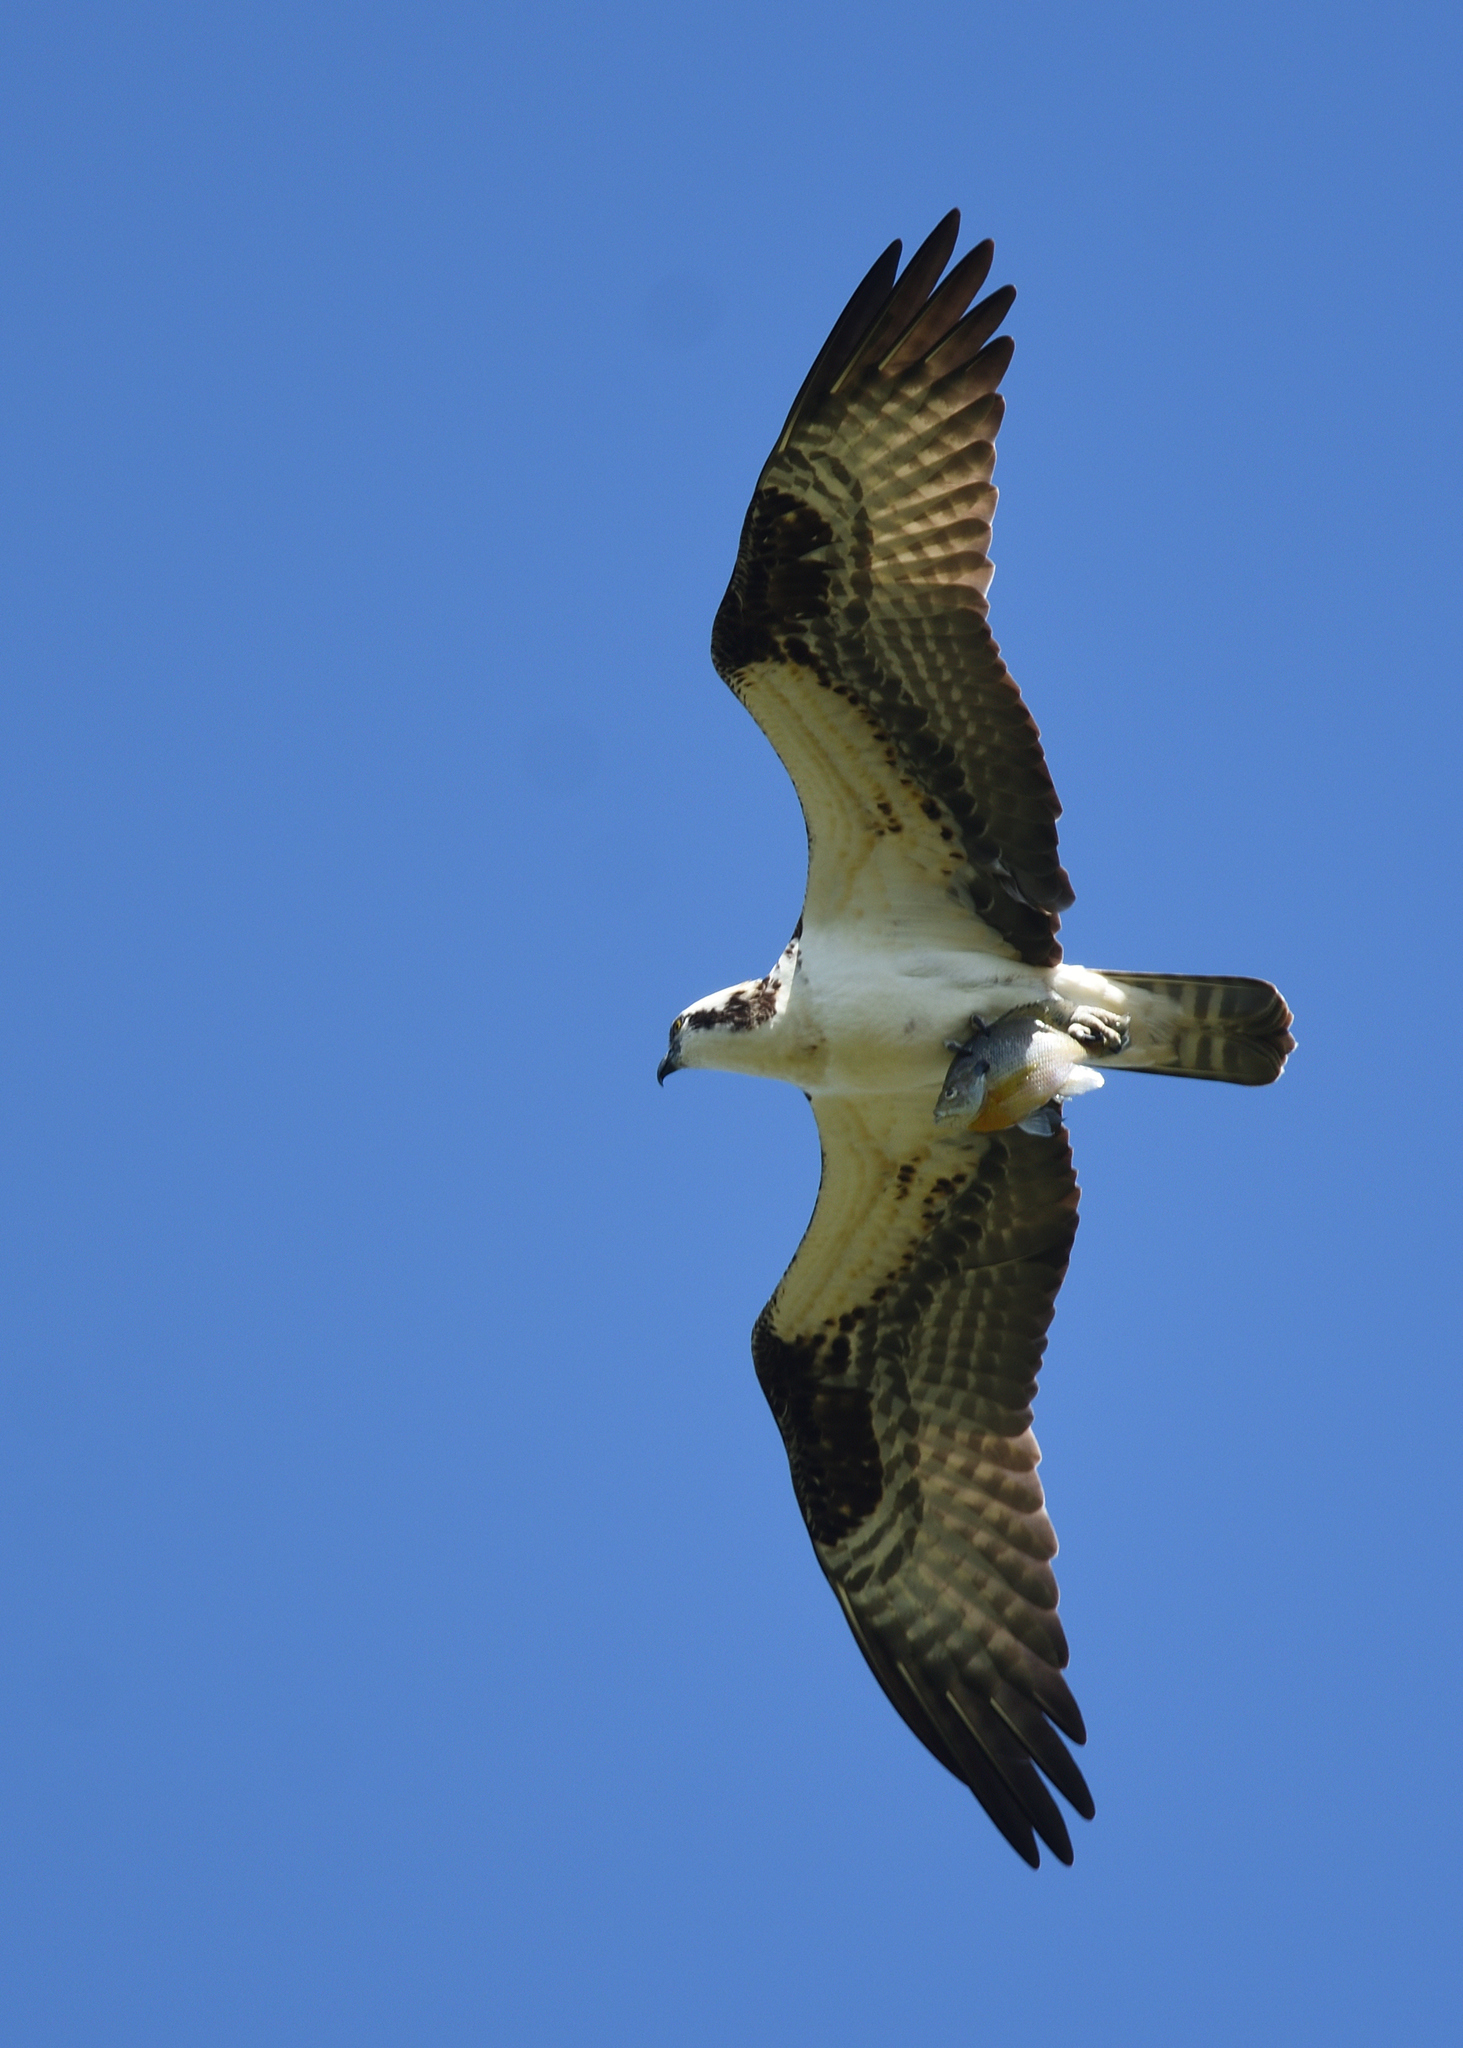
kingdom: Animalia
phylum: Chordata
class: Aves
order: Accipitriformes
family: Pandionidae
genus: Pandion
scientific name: Pandion haliaetus
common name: Osprey
